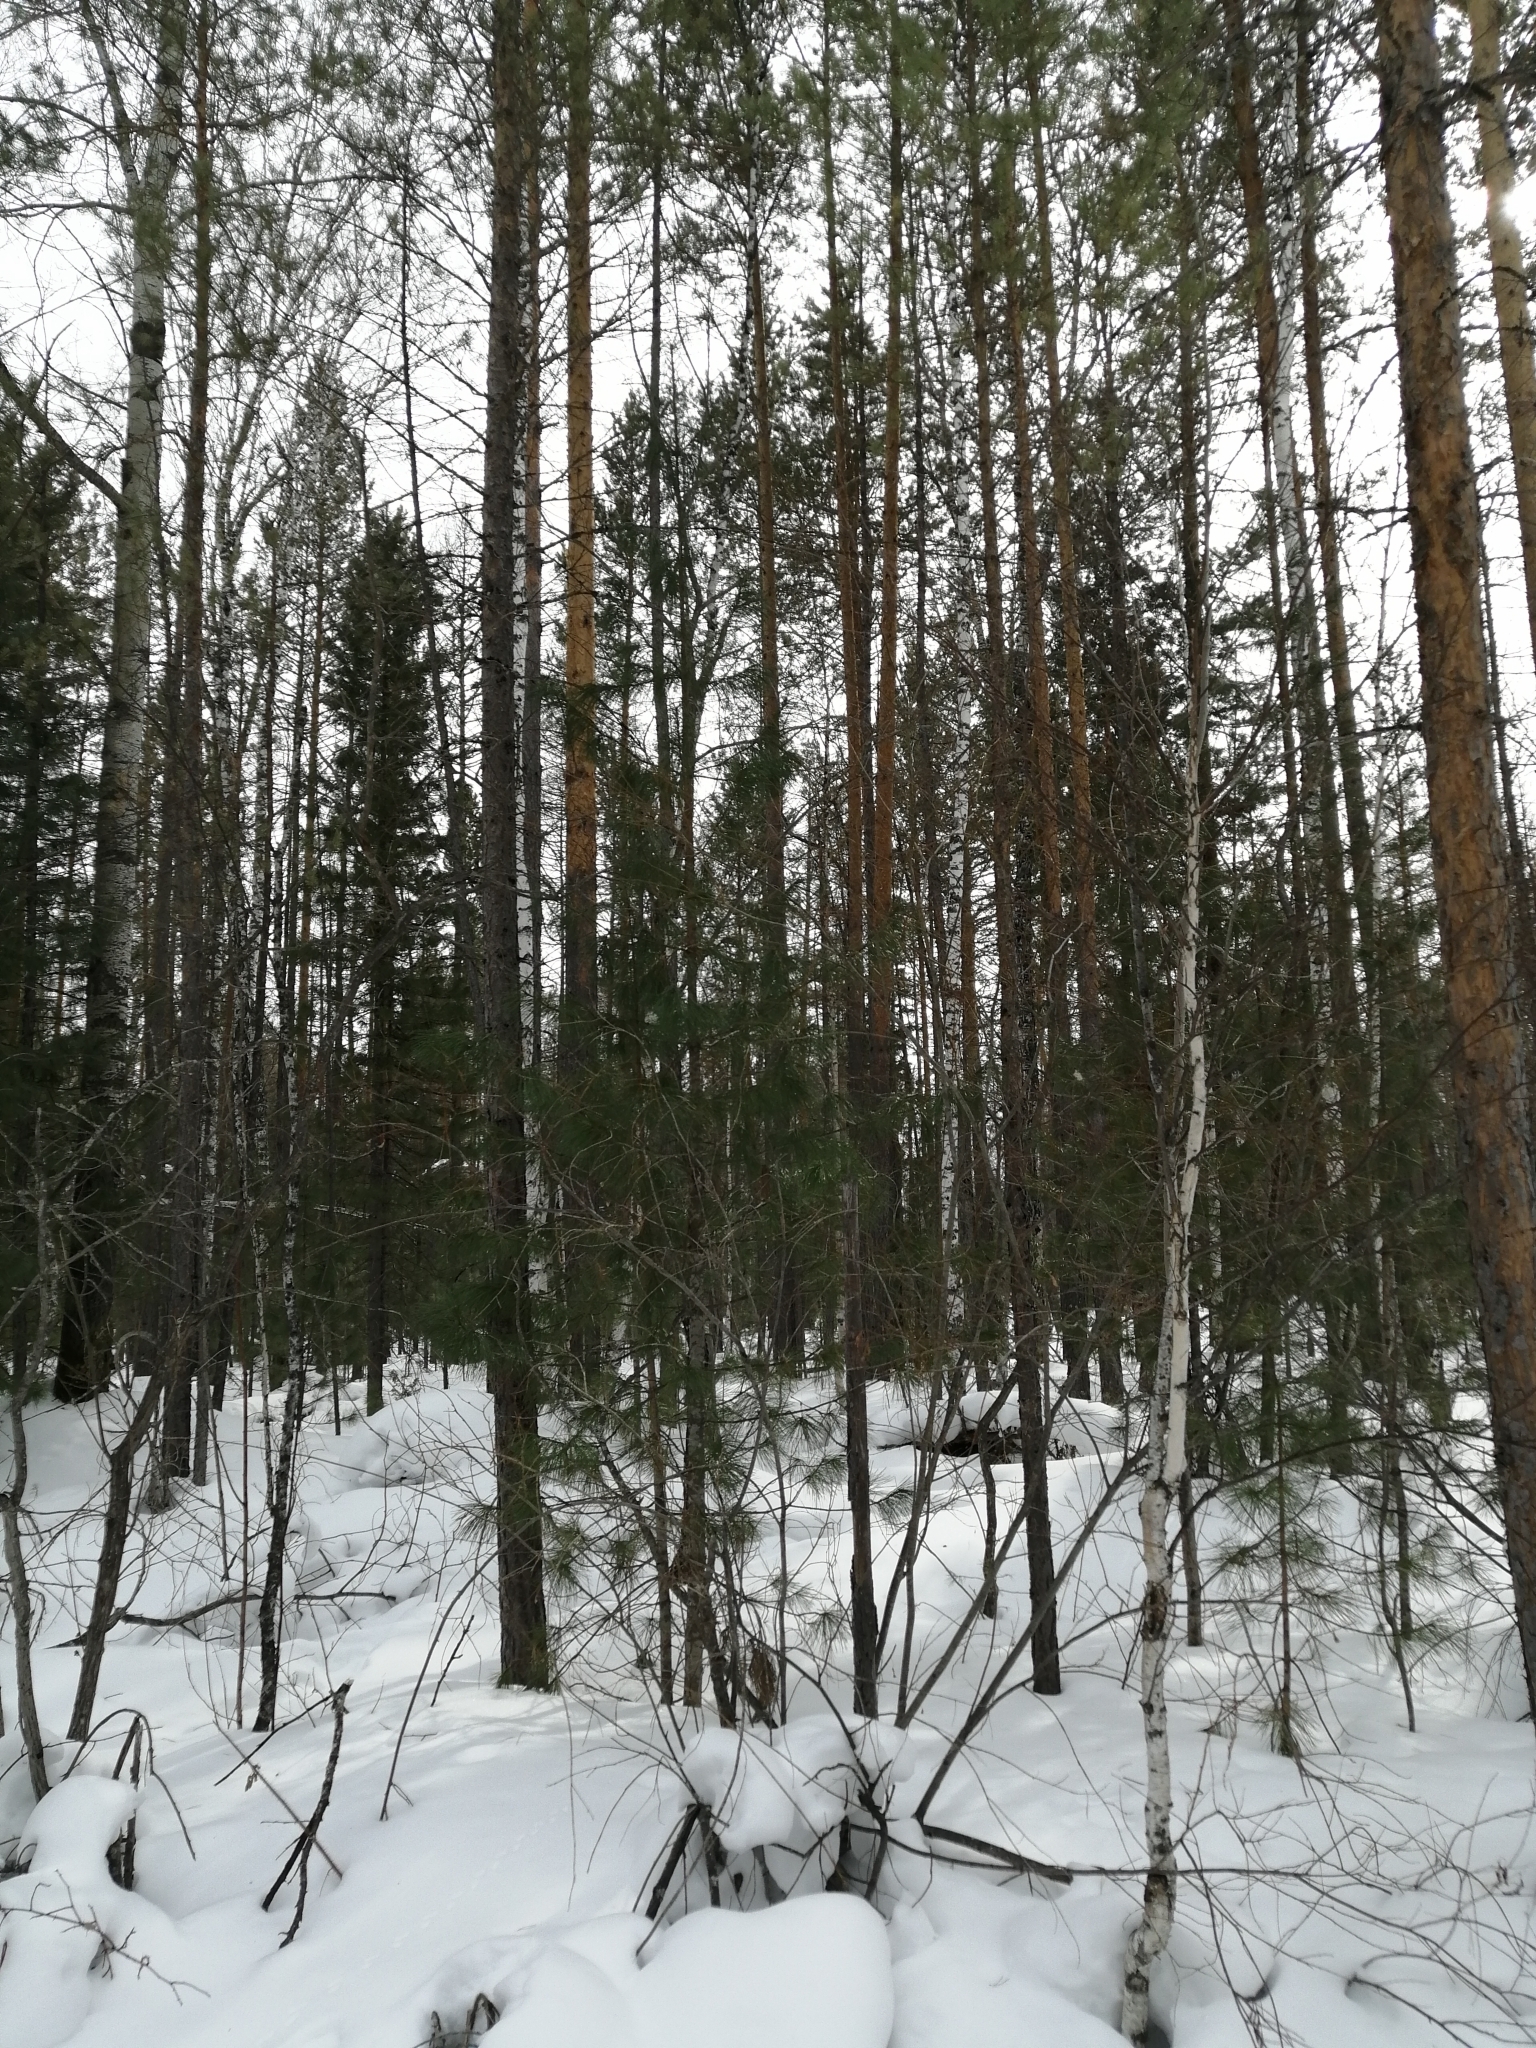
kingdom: Plantae
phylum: Tracheophyta
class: Pinopsida
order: Pinales
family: Pinaceae
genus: Pinus
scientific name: Pinus sibirica
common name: Siberian pine
